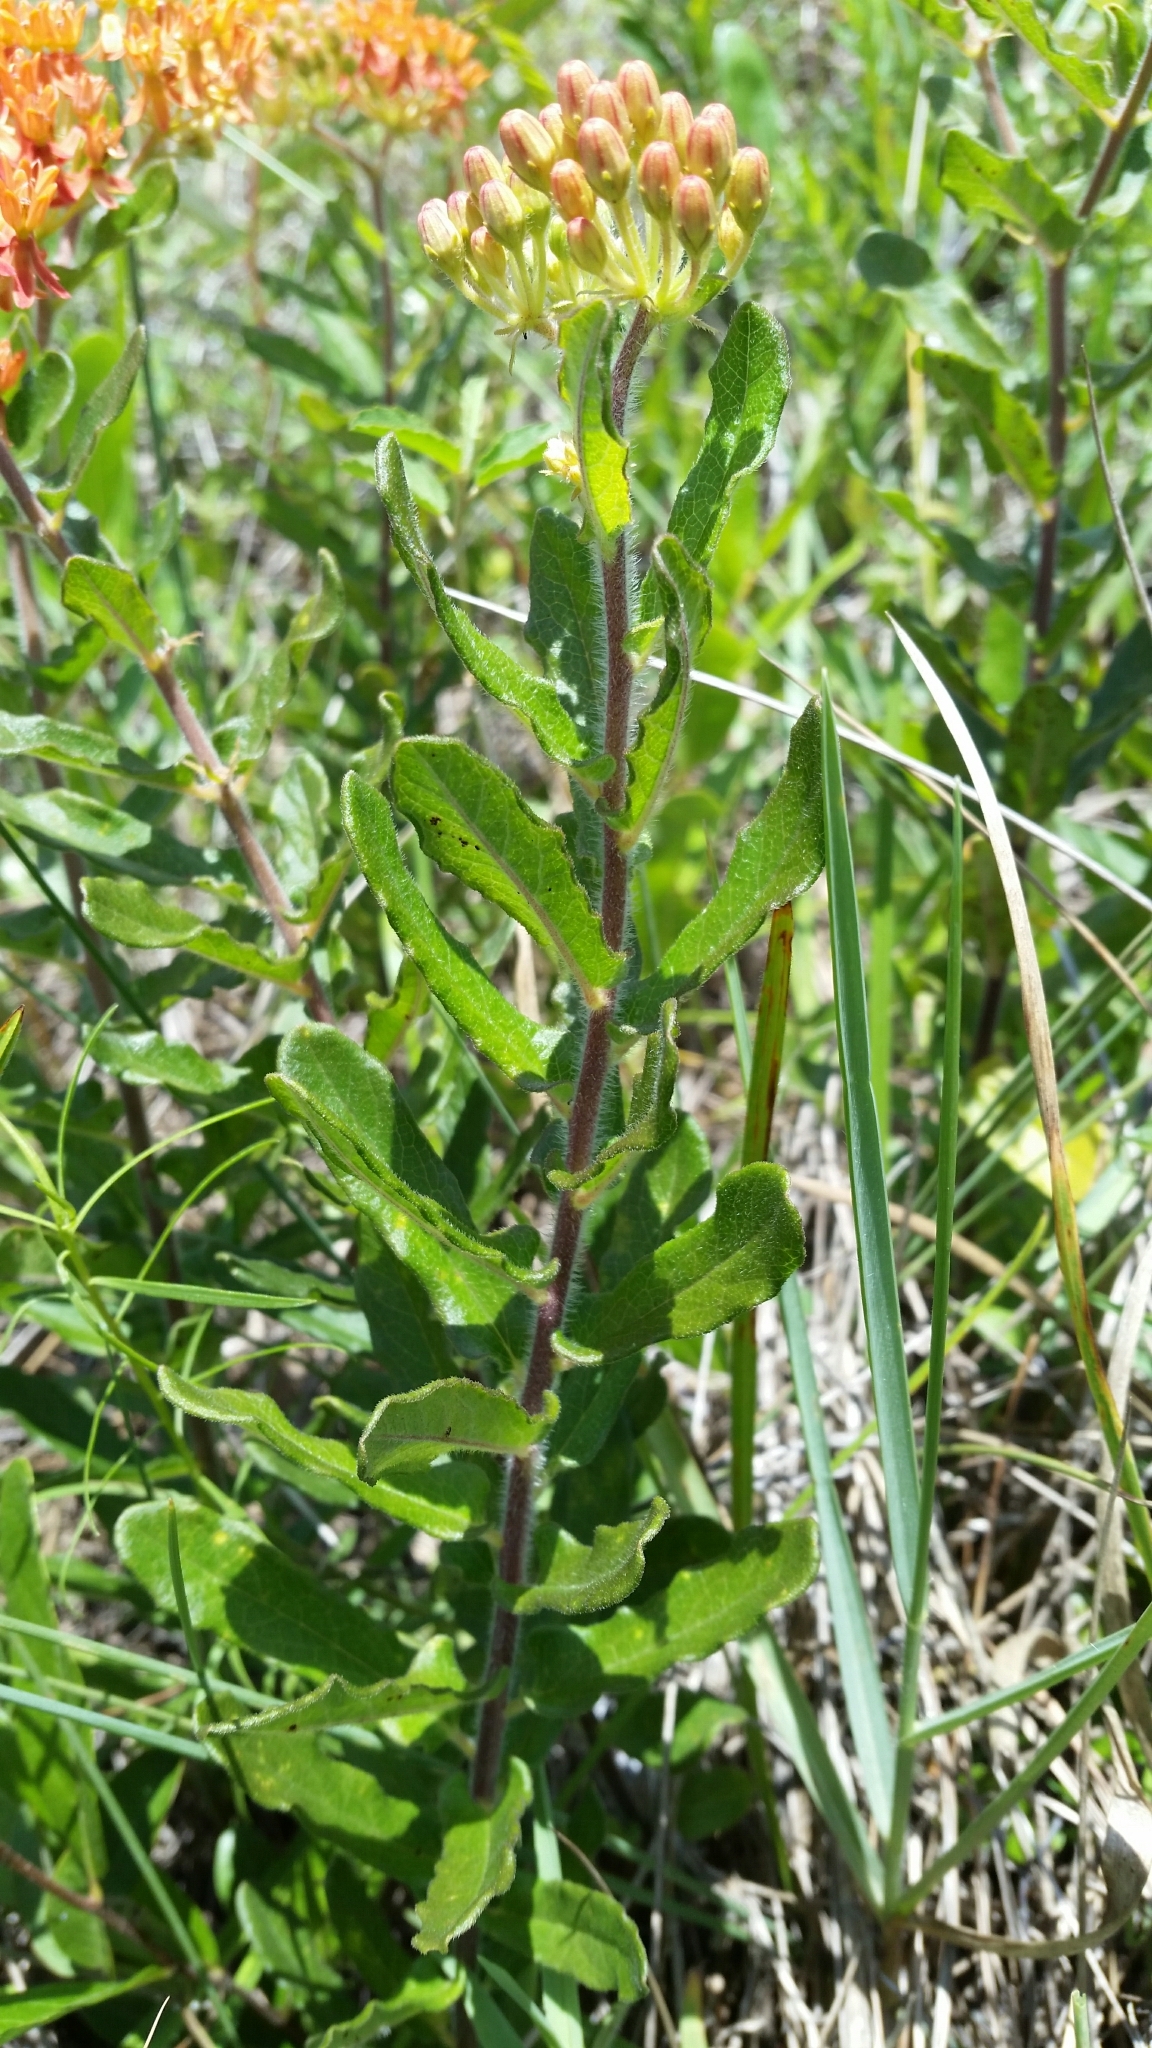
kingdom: Plantae
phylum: Tracheophyta
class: Magnoliopsida
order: Gentianales
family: Apocynaceae
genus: Asclepias
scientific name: Asclepias tuberosa
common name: Butterfly milkweed
